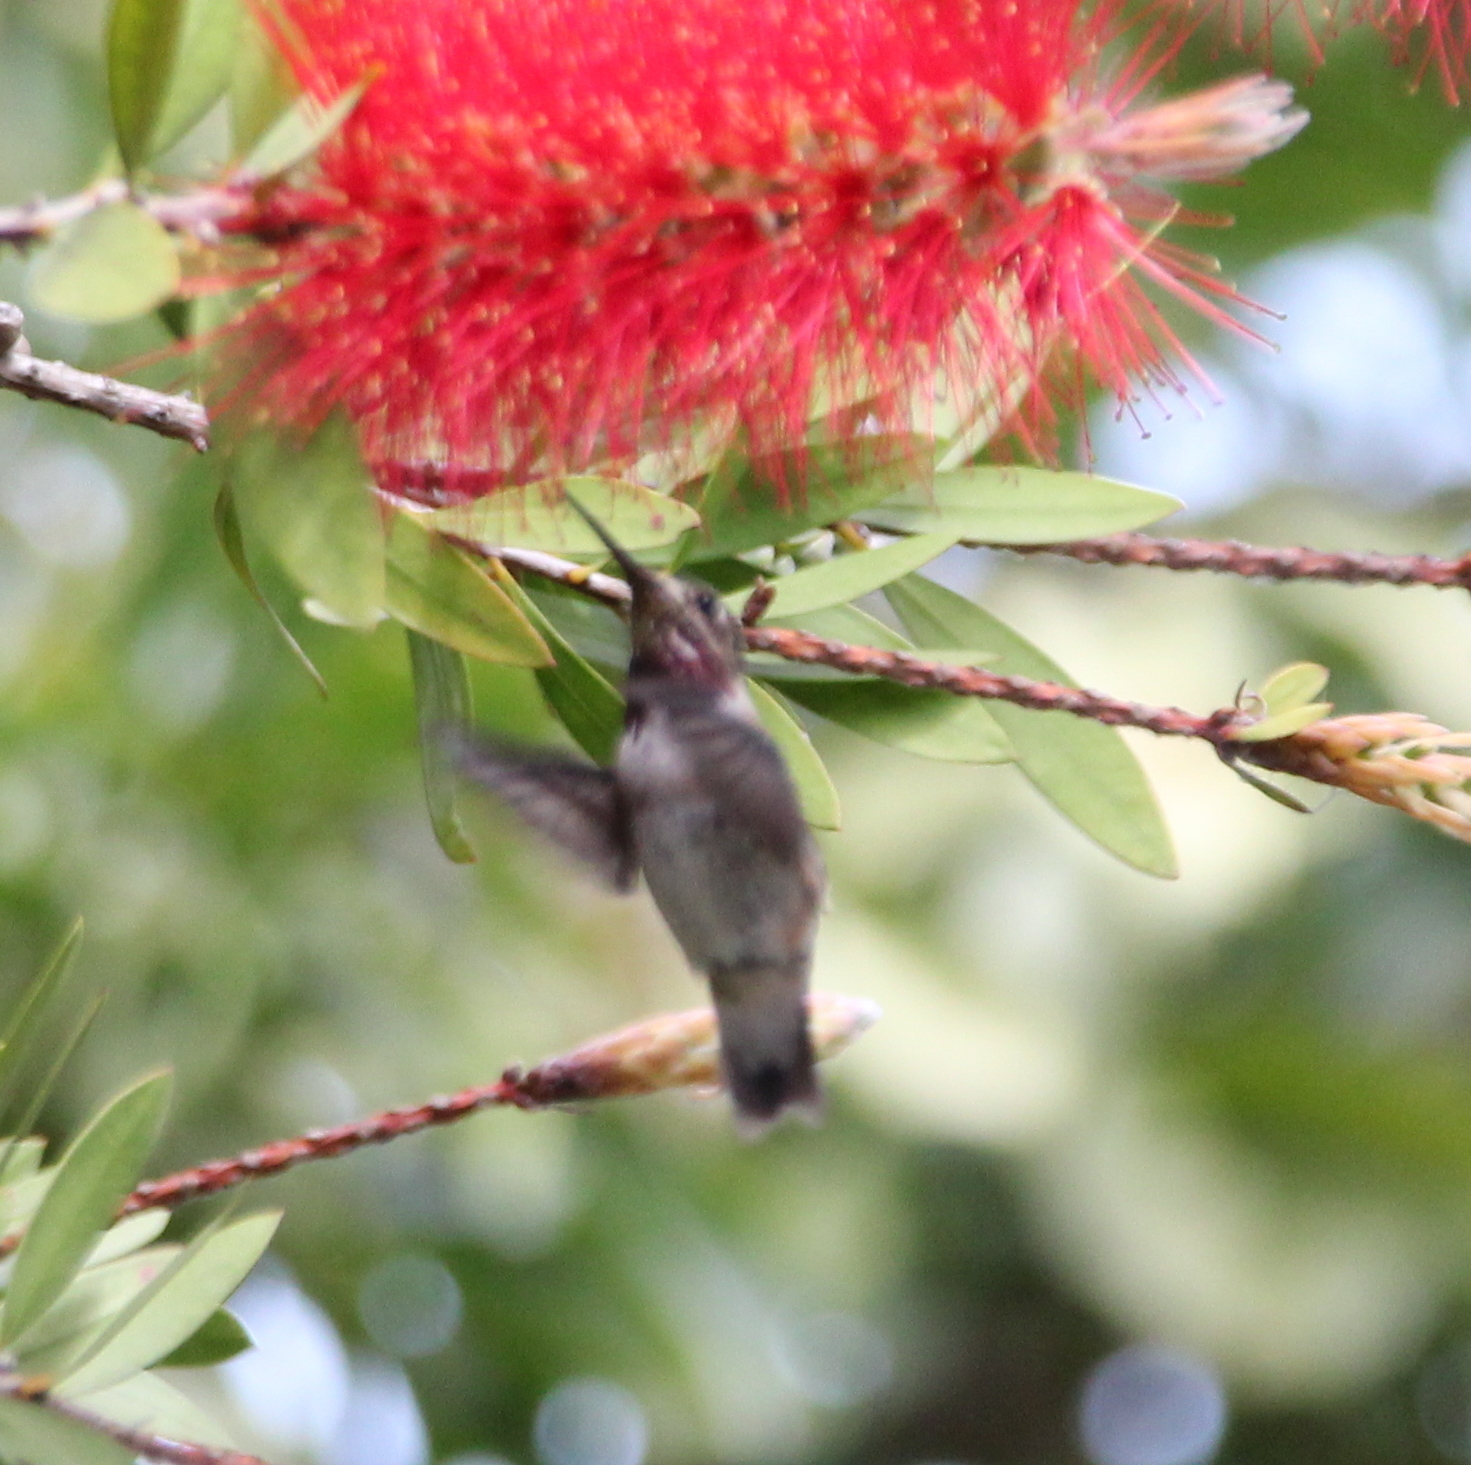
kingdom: Animalia
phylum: Chordata
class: Aves
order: Apodiformes
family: Trochilidae
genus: Selasphorus
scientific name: Selasphorus calliope
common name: Calliope hummingbird
